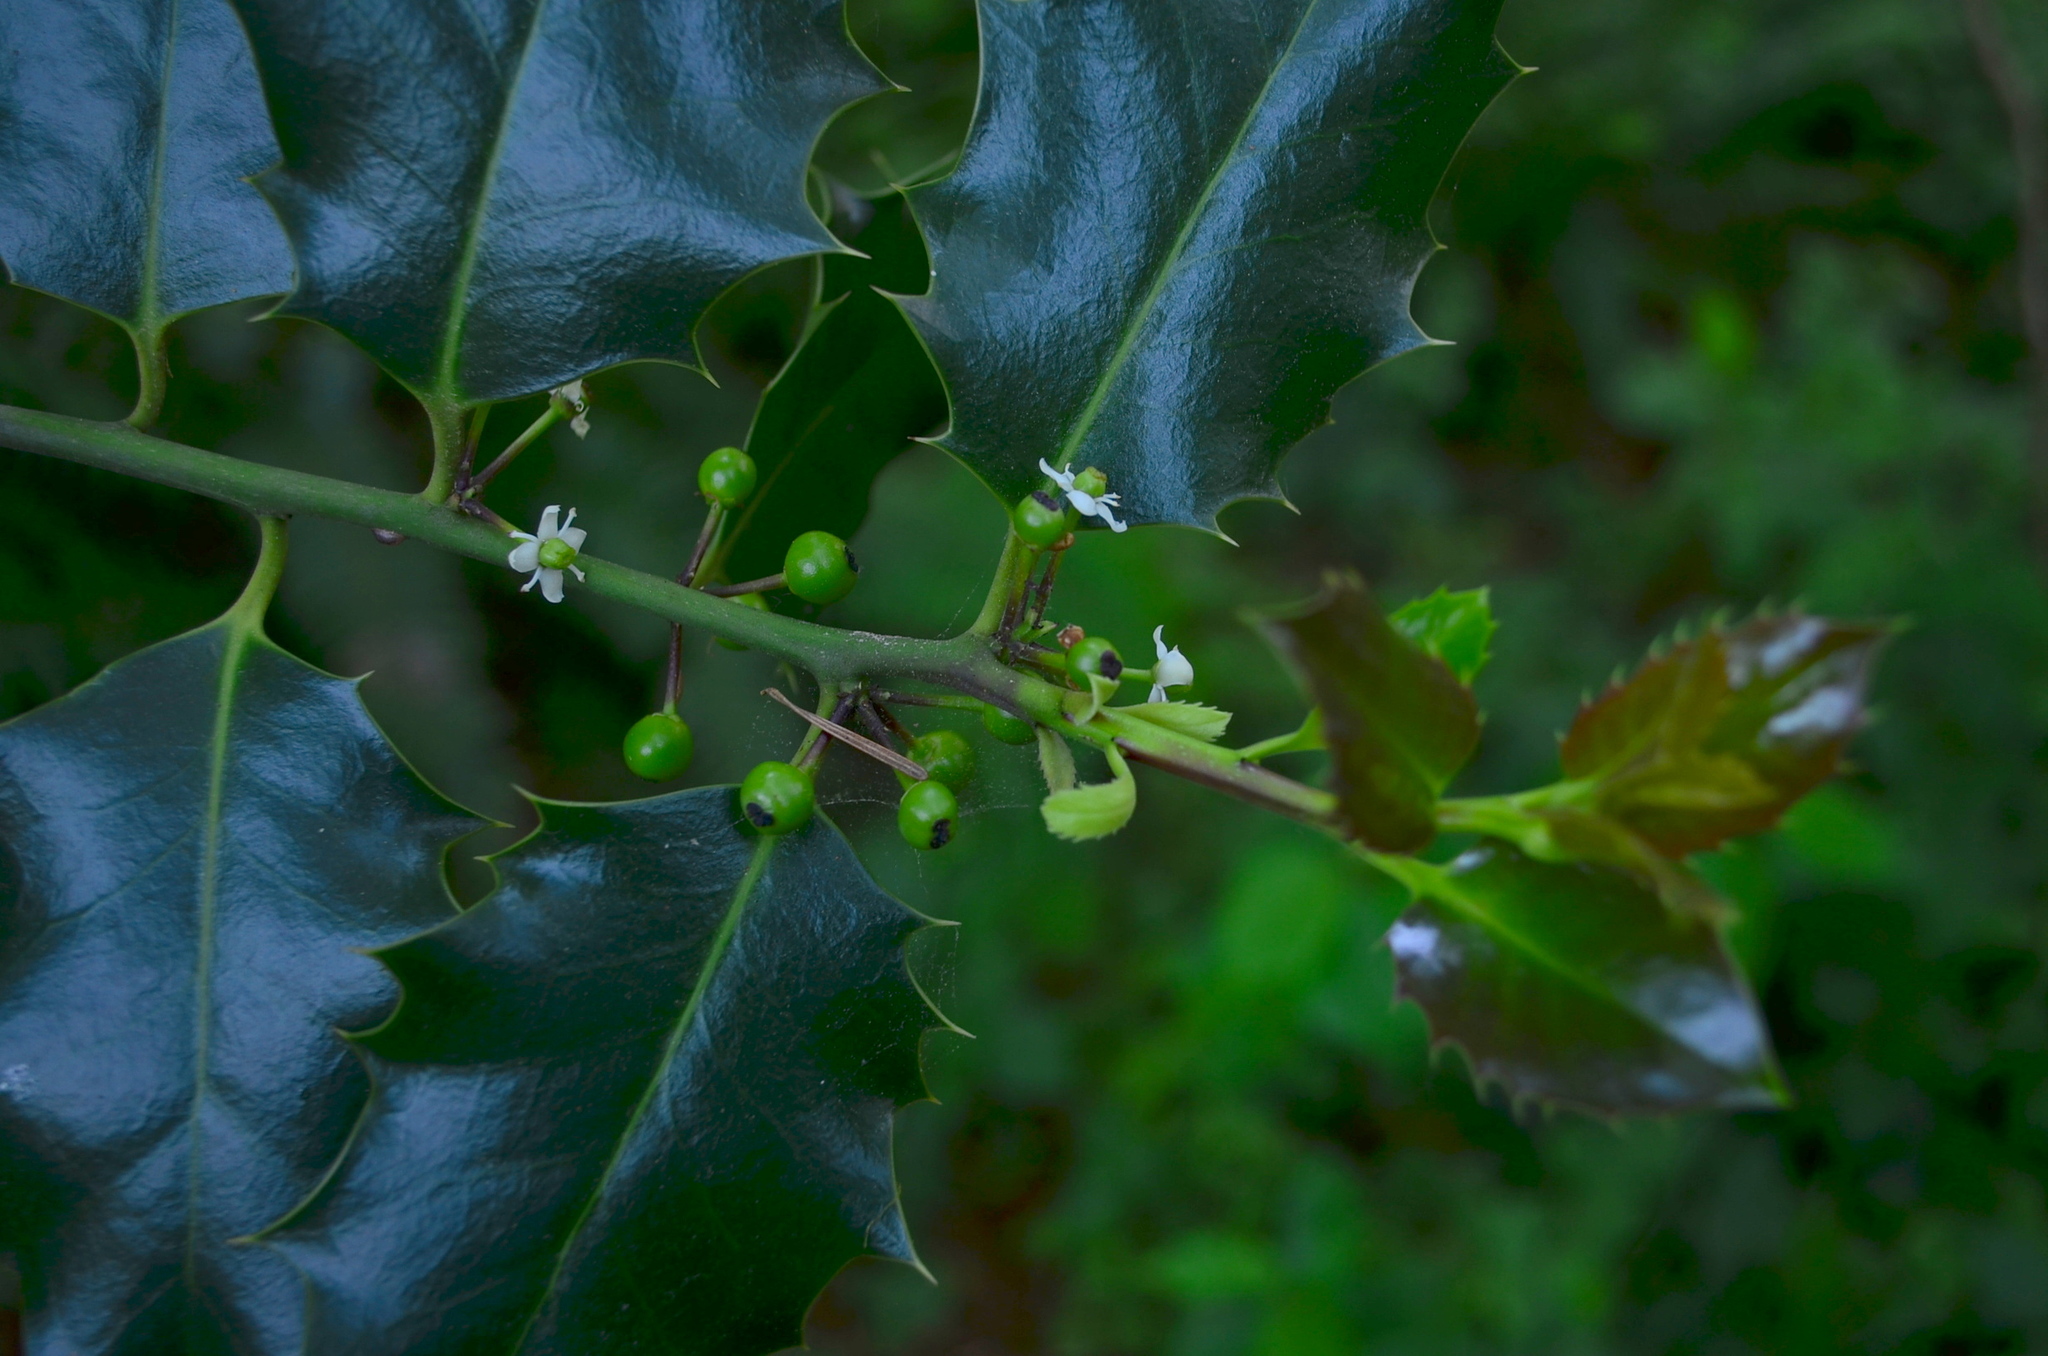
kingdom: Plantae
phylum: Tracheophyta
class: Magnoliopsida
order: Aquifoliales
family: Aquifoliaceae
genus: Ilex
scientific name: Ilex aquifolium
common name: English holly
